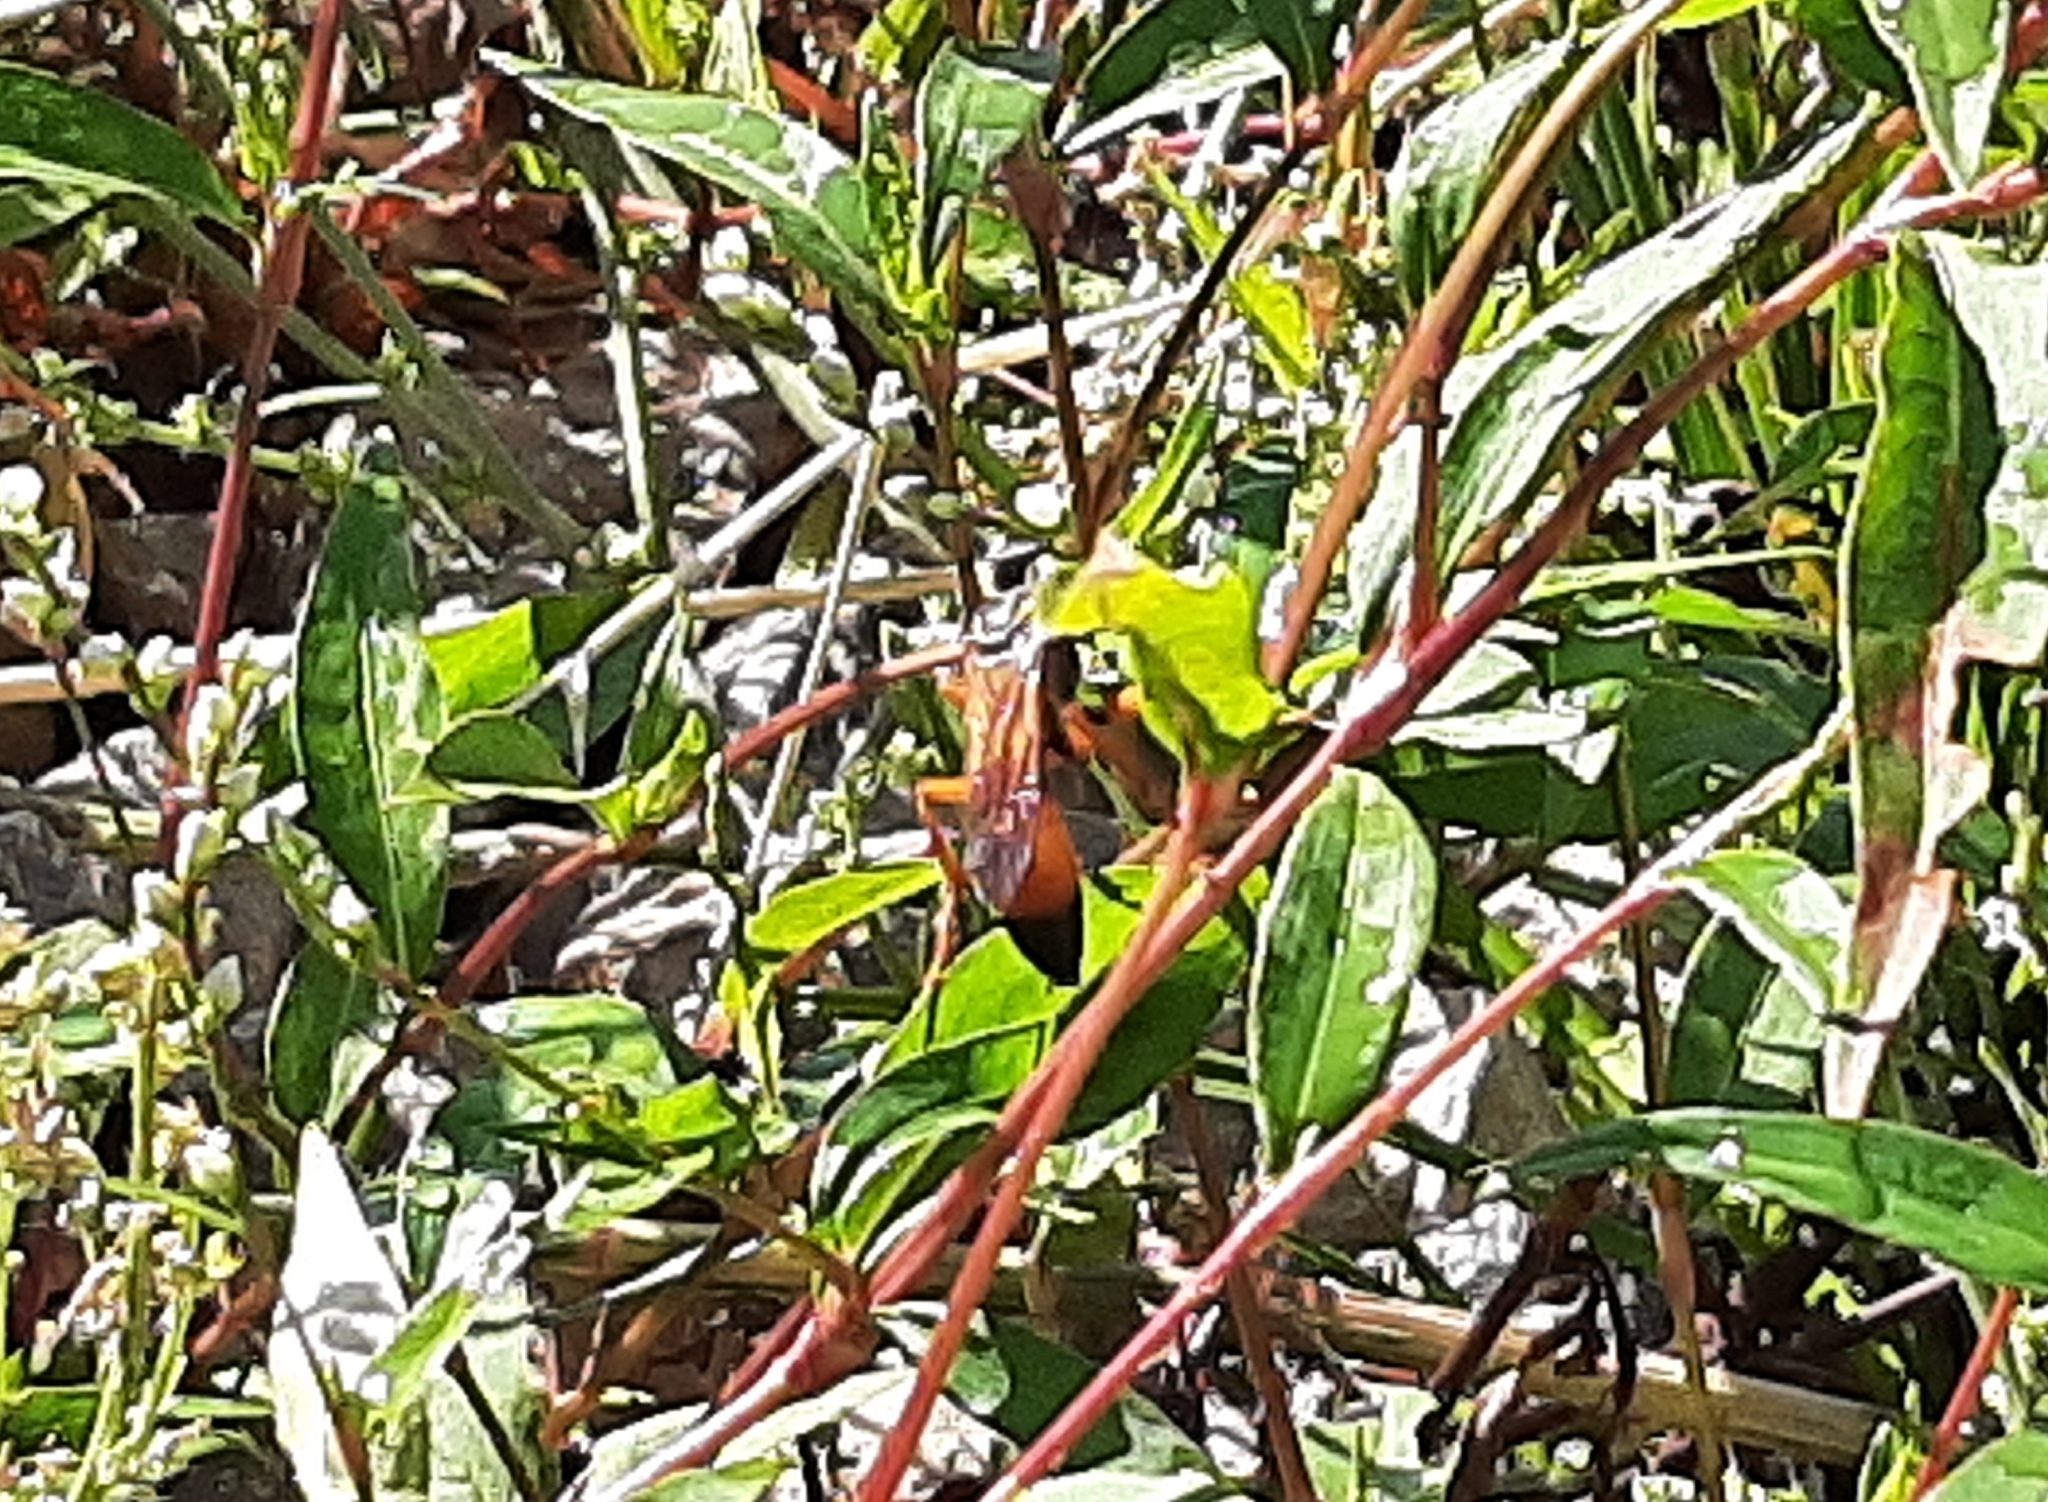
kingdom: Animalia
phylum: Arthropoda
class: Insecta
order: Hymenoptera
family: Sphecidae
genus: Sphex
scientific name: Sphex ichneumoneus
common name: Great golden digger wasp
